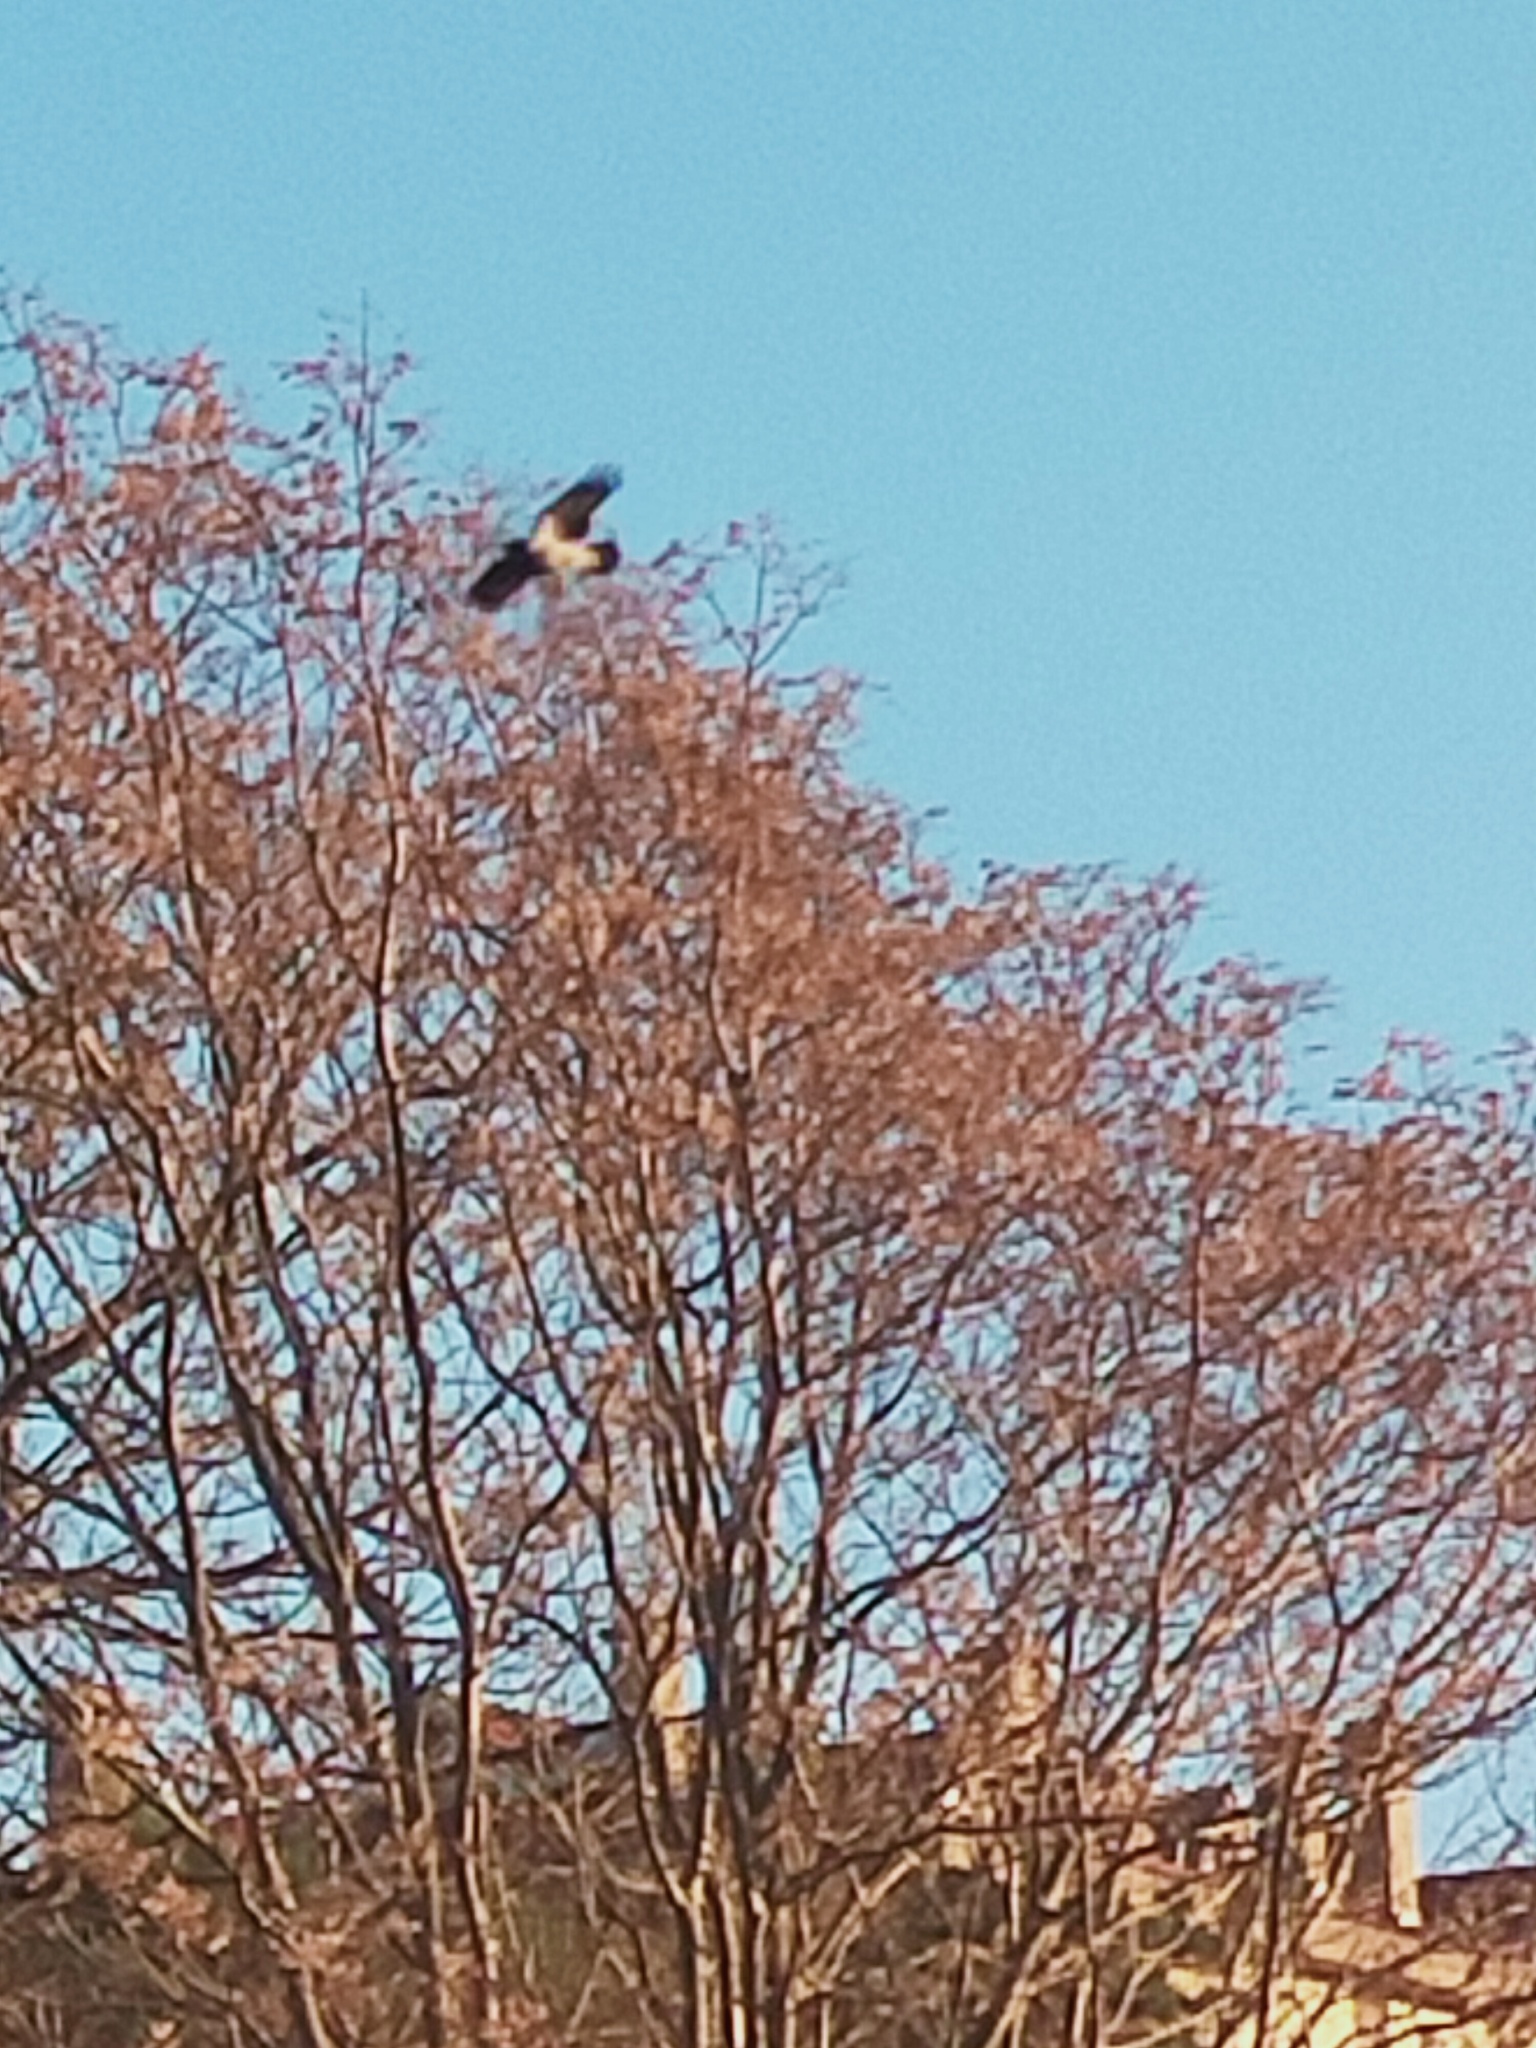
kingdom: Animalia
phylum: Chordata
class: Aves
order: Passeriformes
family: Corvidae
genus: Corvus
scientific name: Corvus cornix
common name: Hooded crow
